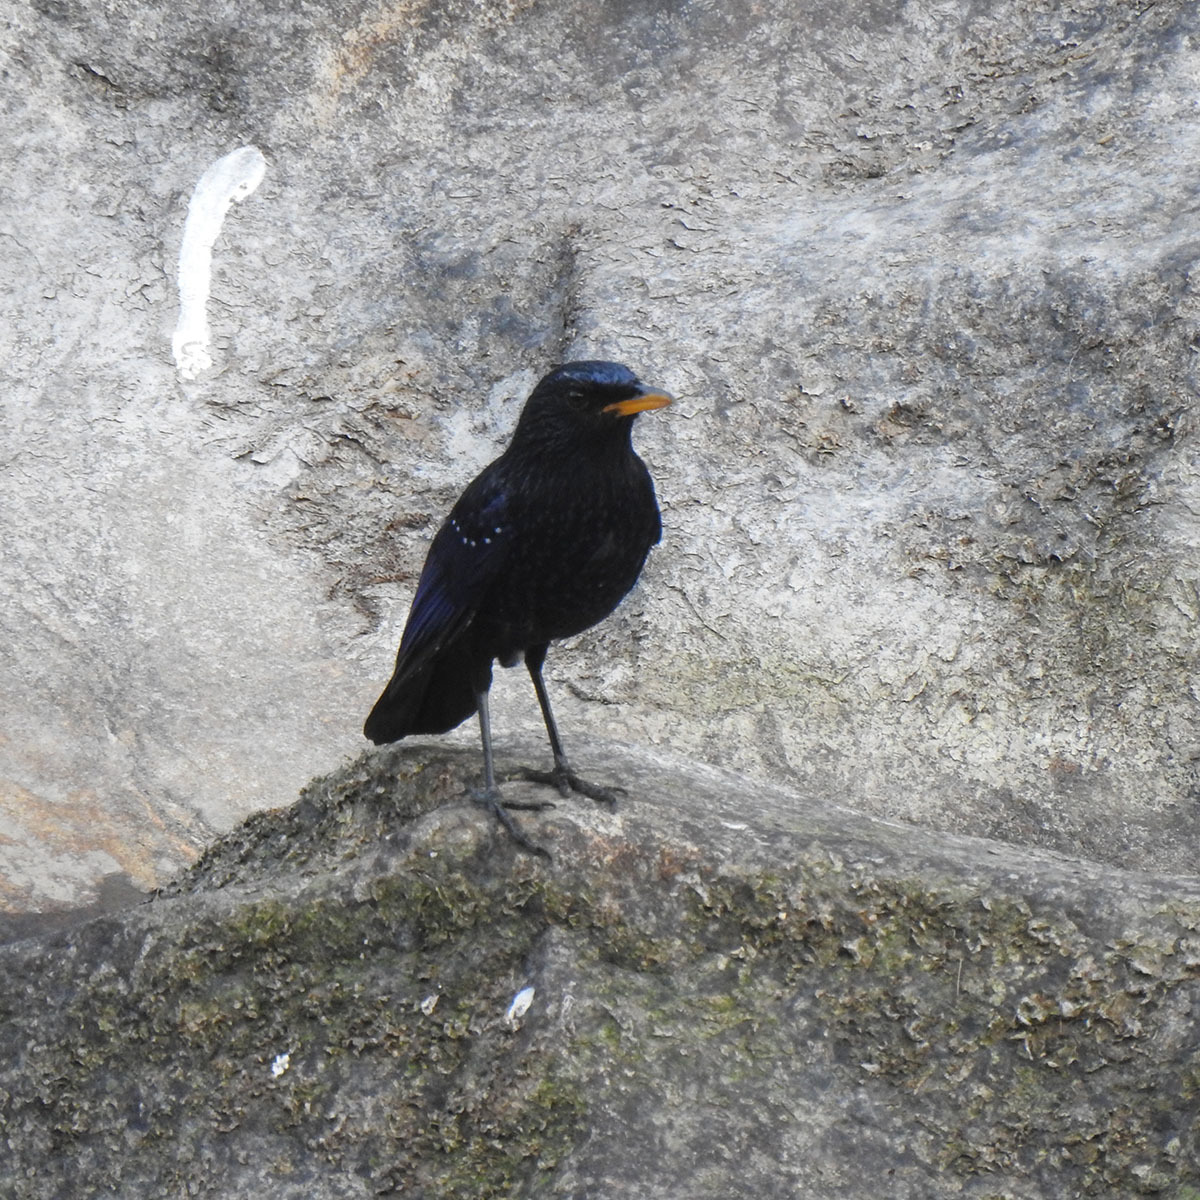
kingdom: Animalia
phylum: Chordata
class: Aves
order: Passeriformes
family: Muscicapidae
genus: Myophonus
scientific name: Myophonus caeruleus
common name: Blue whistling-thrush
